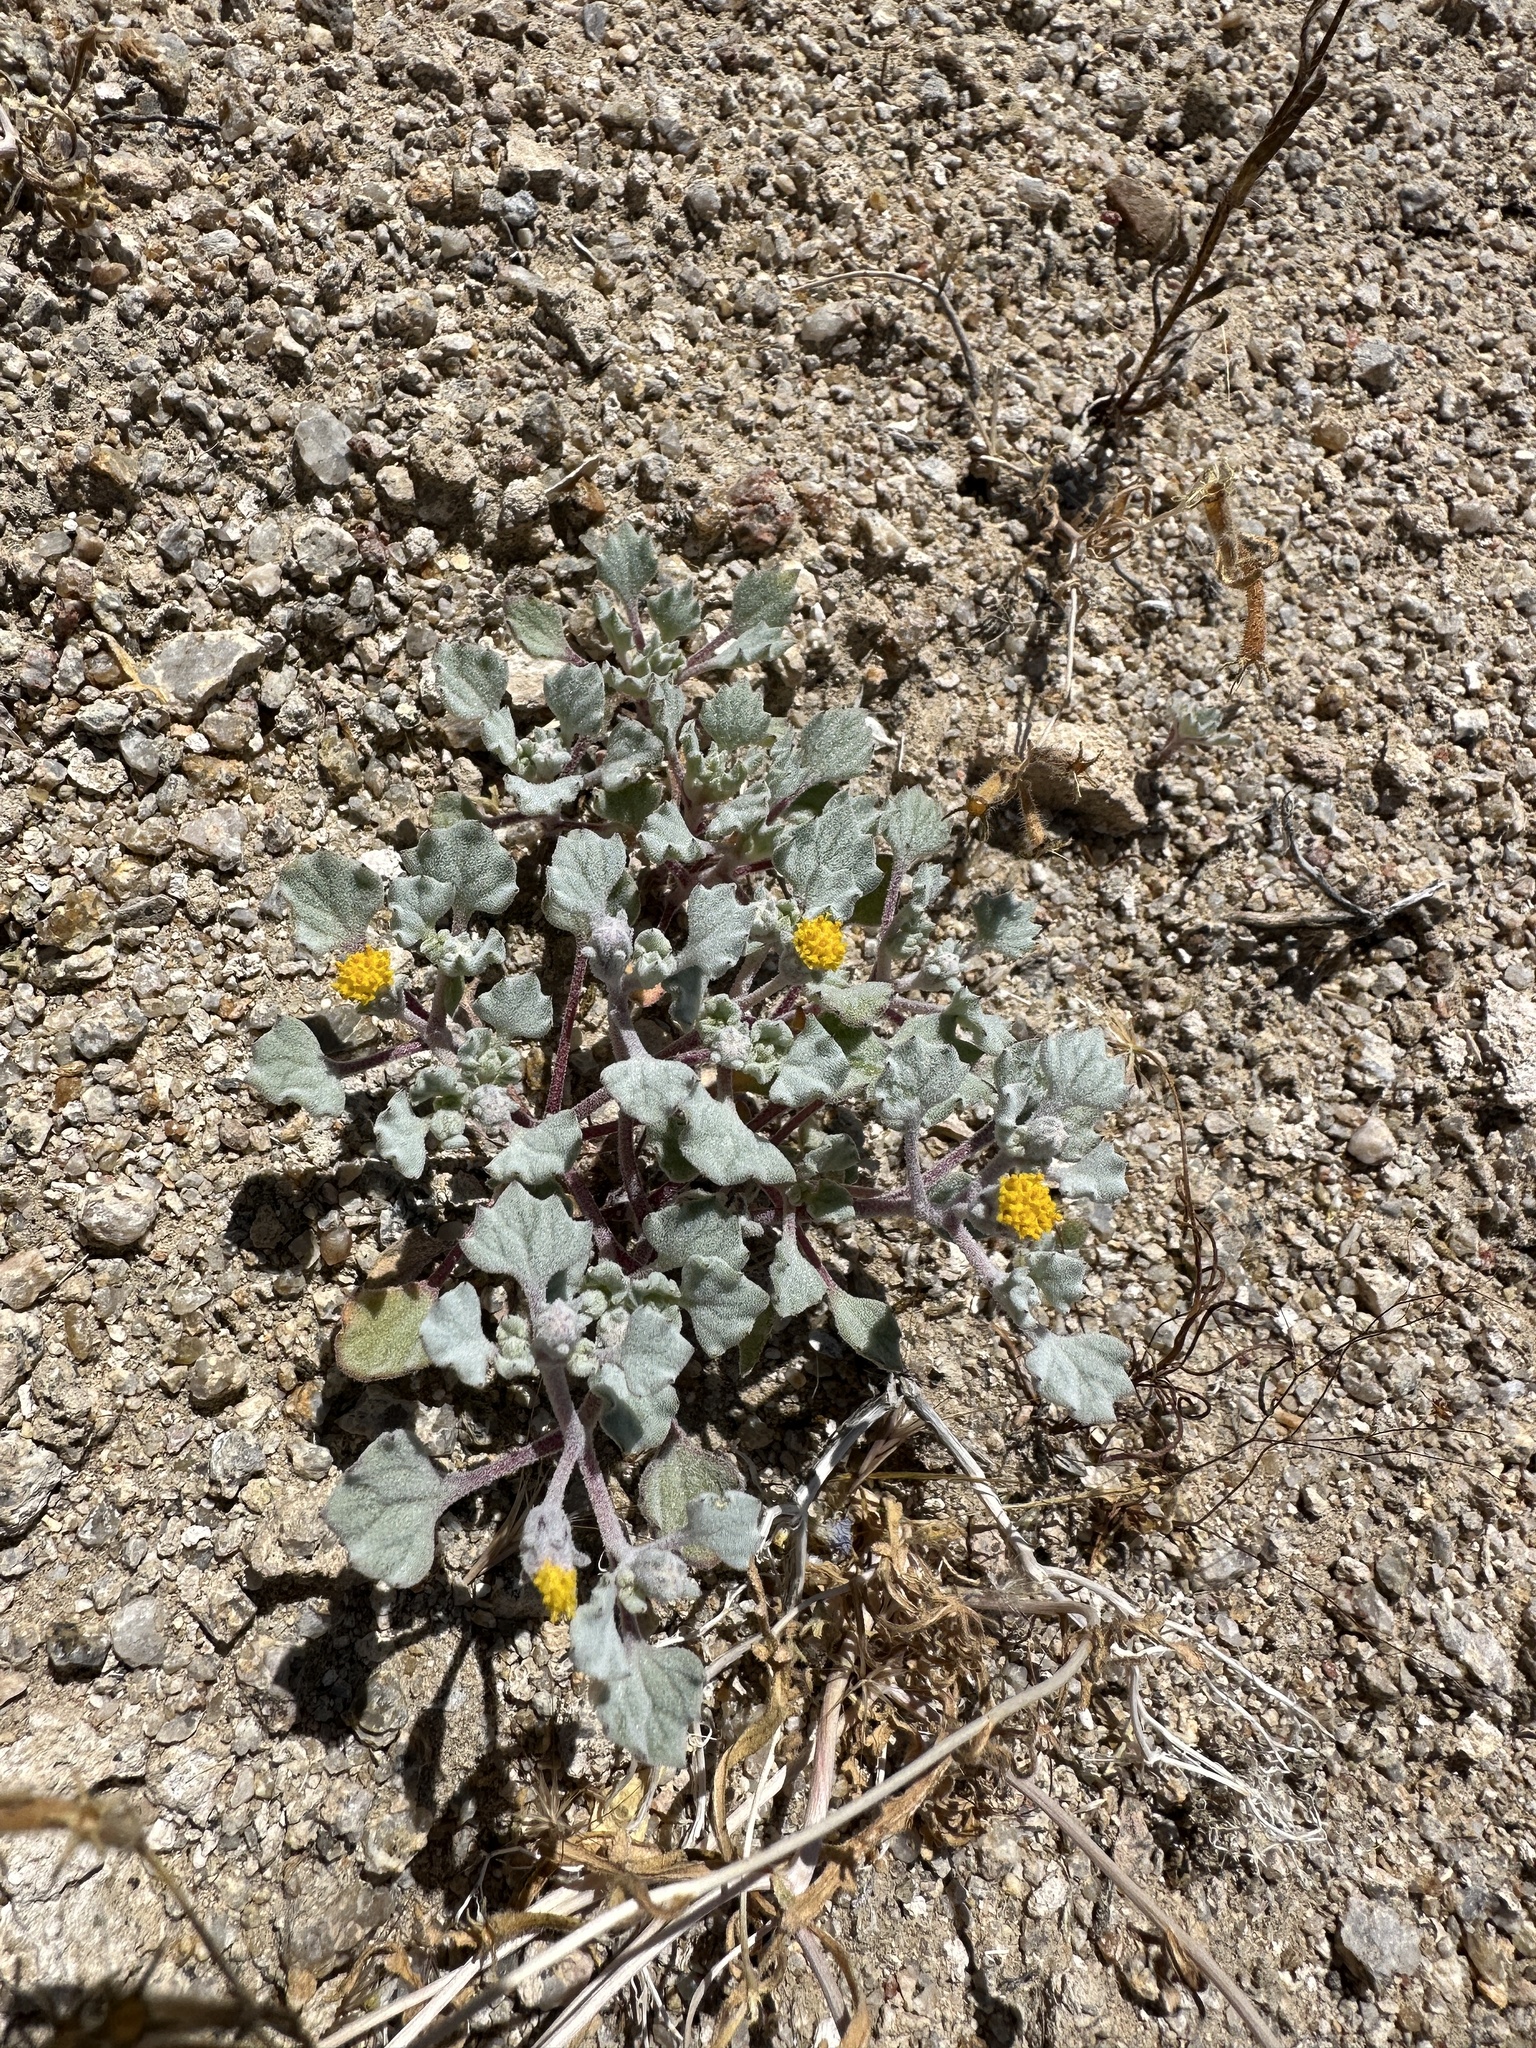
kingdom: Plantae
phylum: Tracheophyta
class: Magnoliopsida
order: Asterales
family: Asteraceae
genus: Psathyrotes
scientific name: Psathyrotes annua
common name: Mealy rosettes
